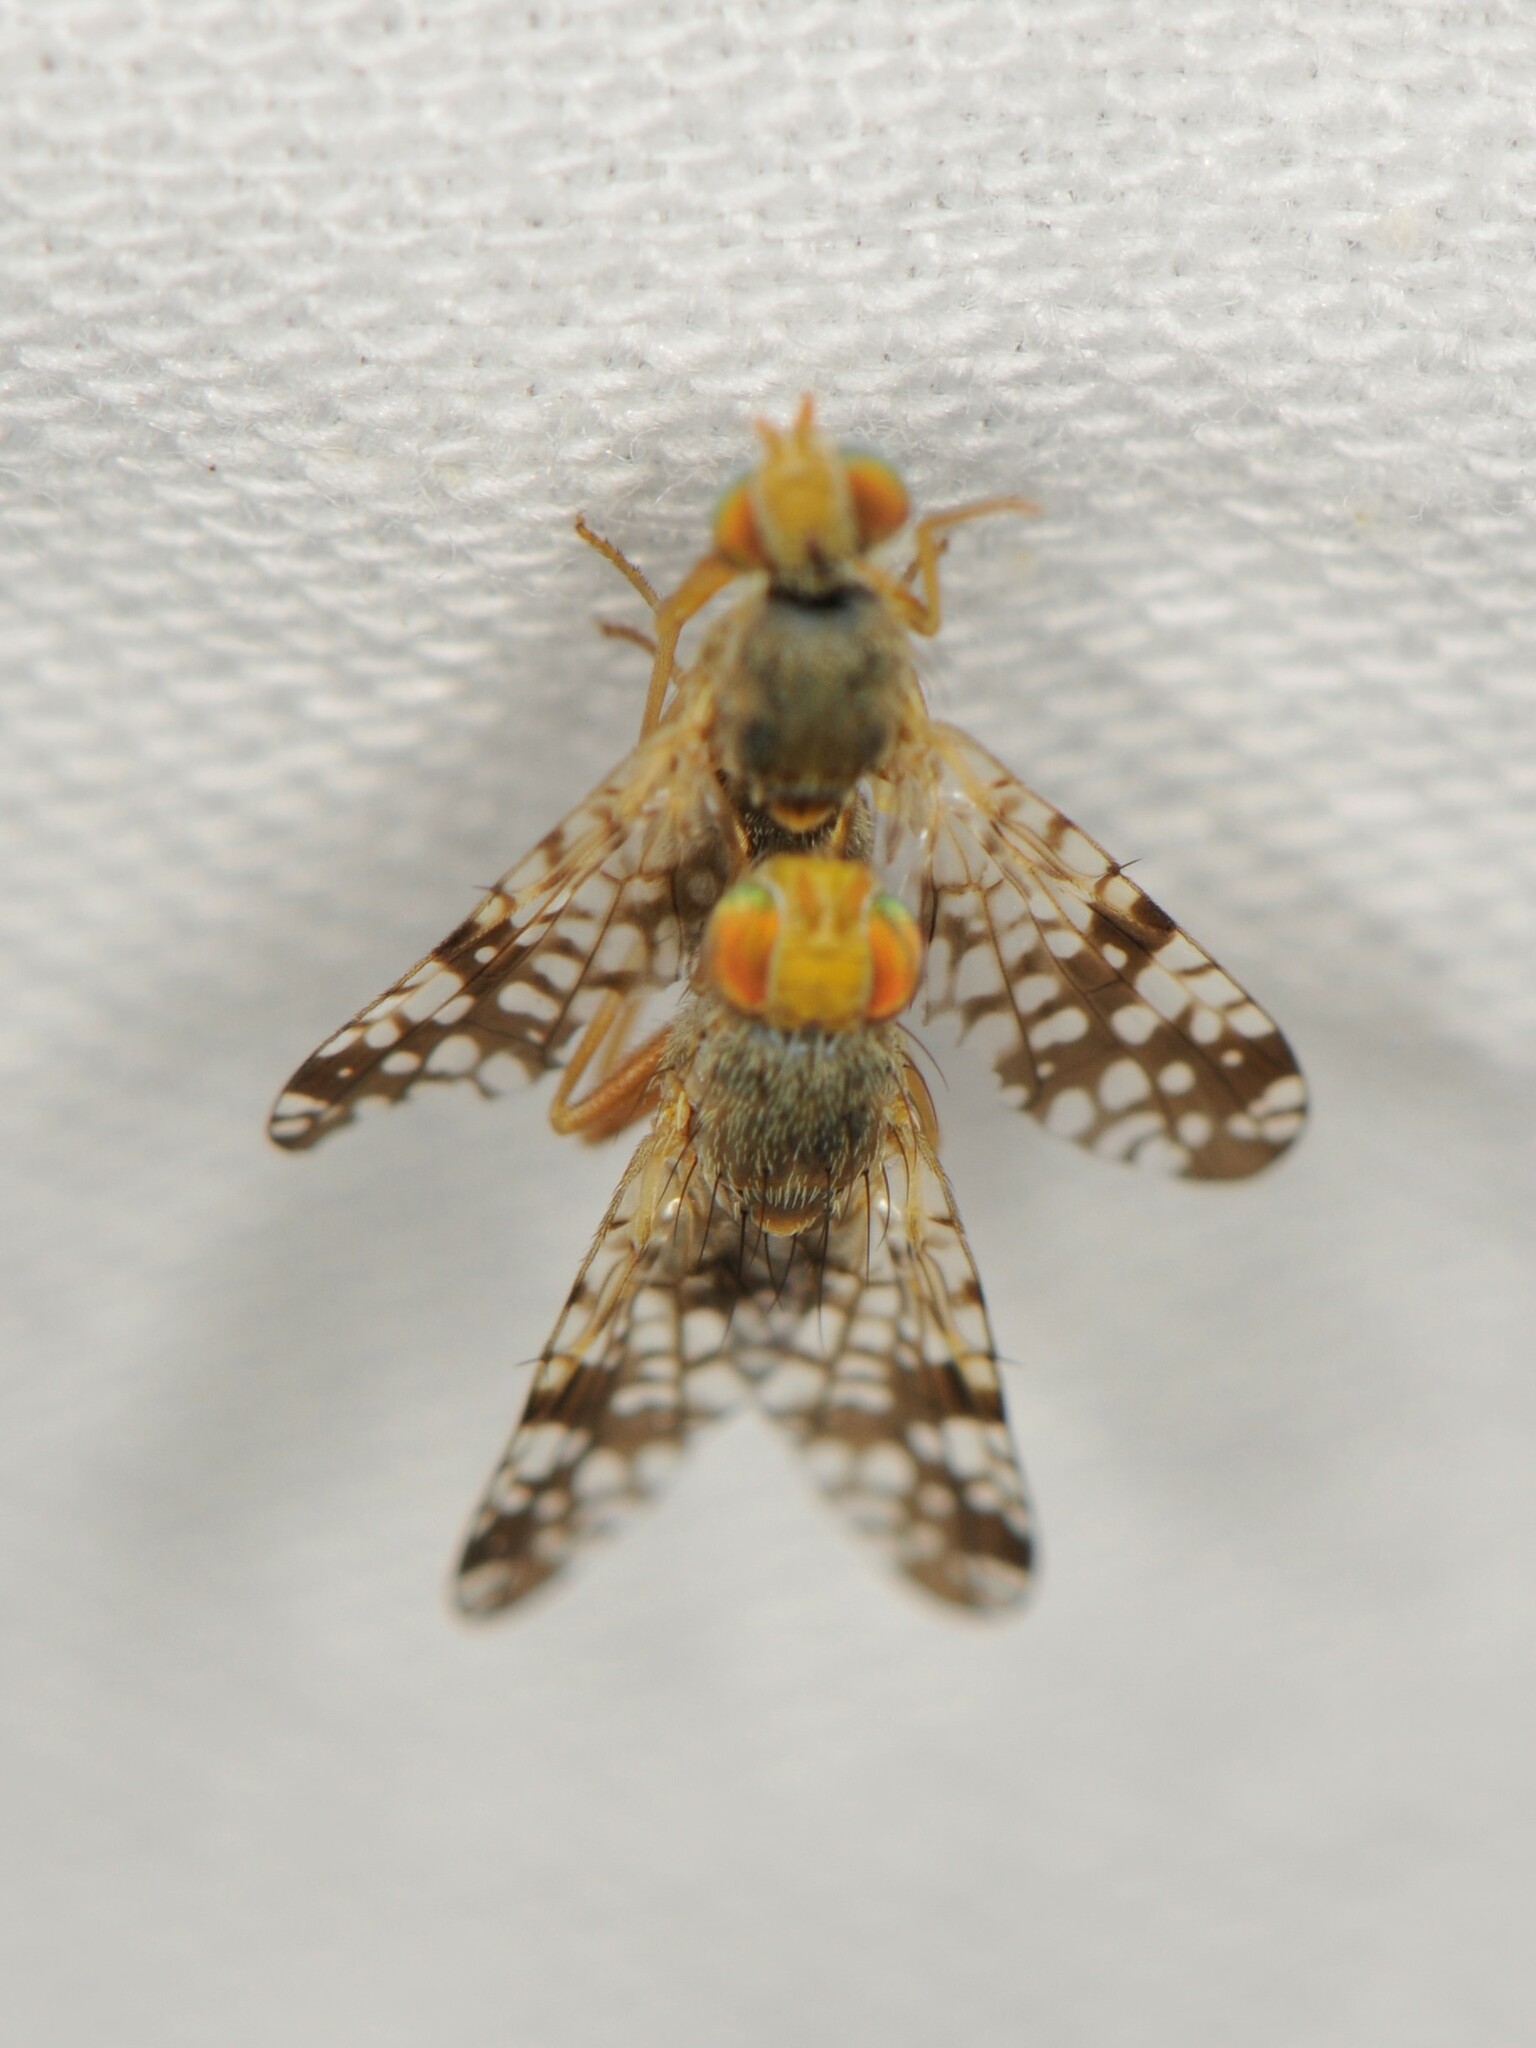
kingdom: Animalia
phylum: Arthropoda
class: Insecta
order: Diptera
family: Tephritidae
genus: Neotephritis
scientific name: Neotephritis finalis
